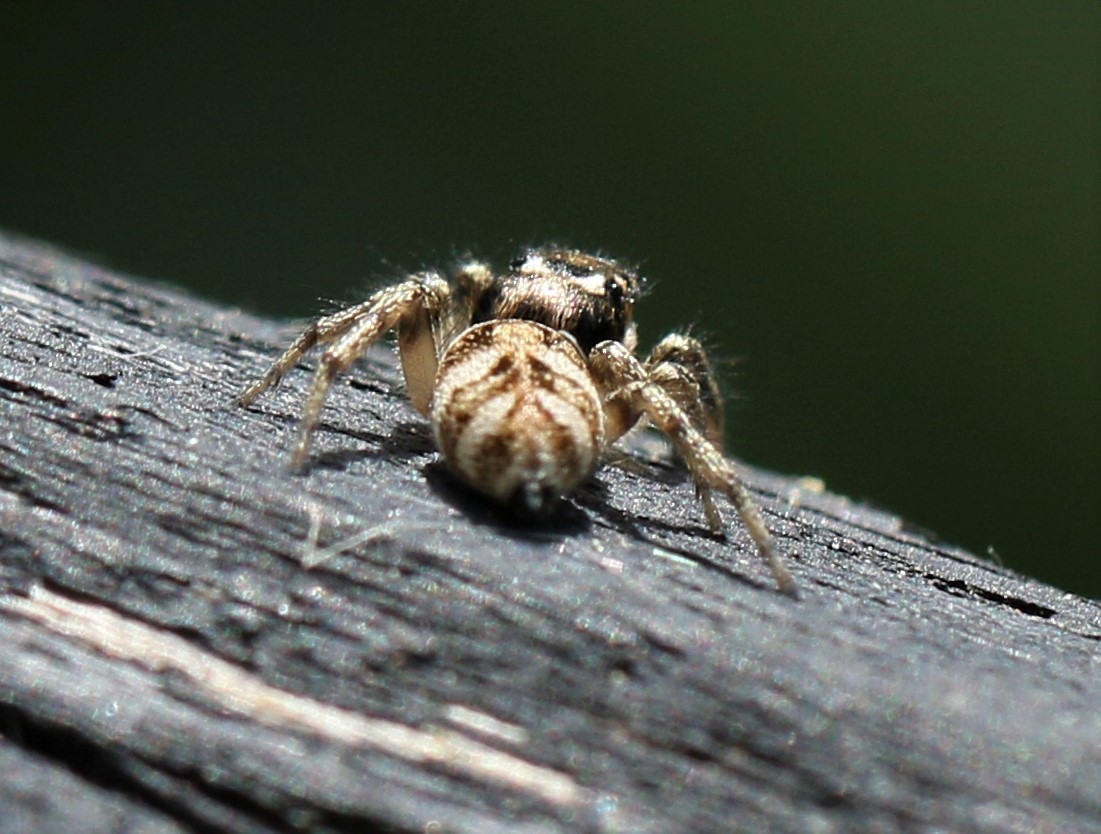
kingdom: Animalia
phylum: Arthropoda
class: Arachnida
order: Araneae
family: Salticidae
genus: Salticus
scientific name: Salticus scenicus
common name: Zebra jumper
